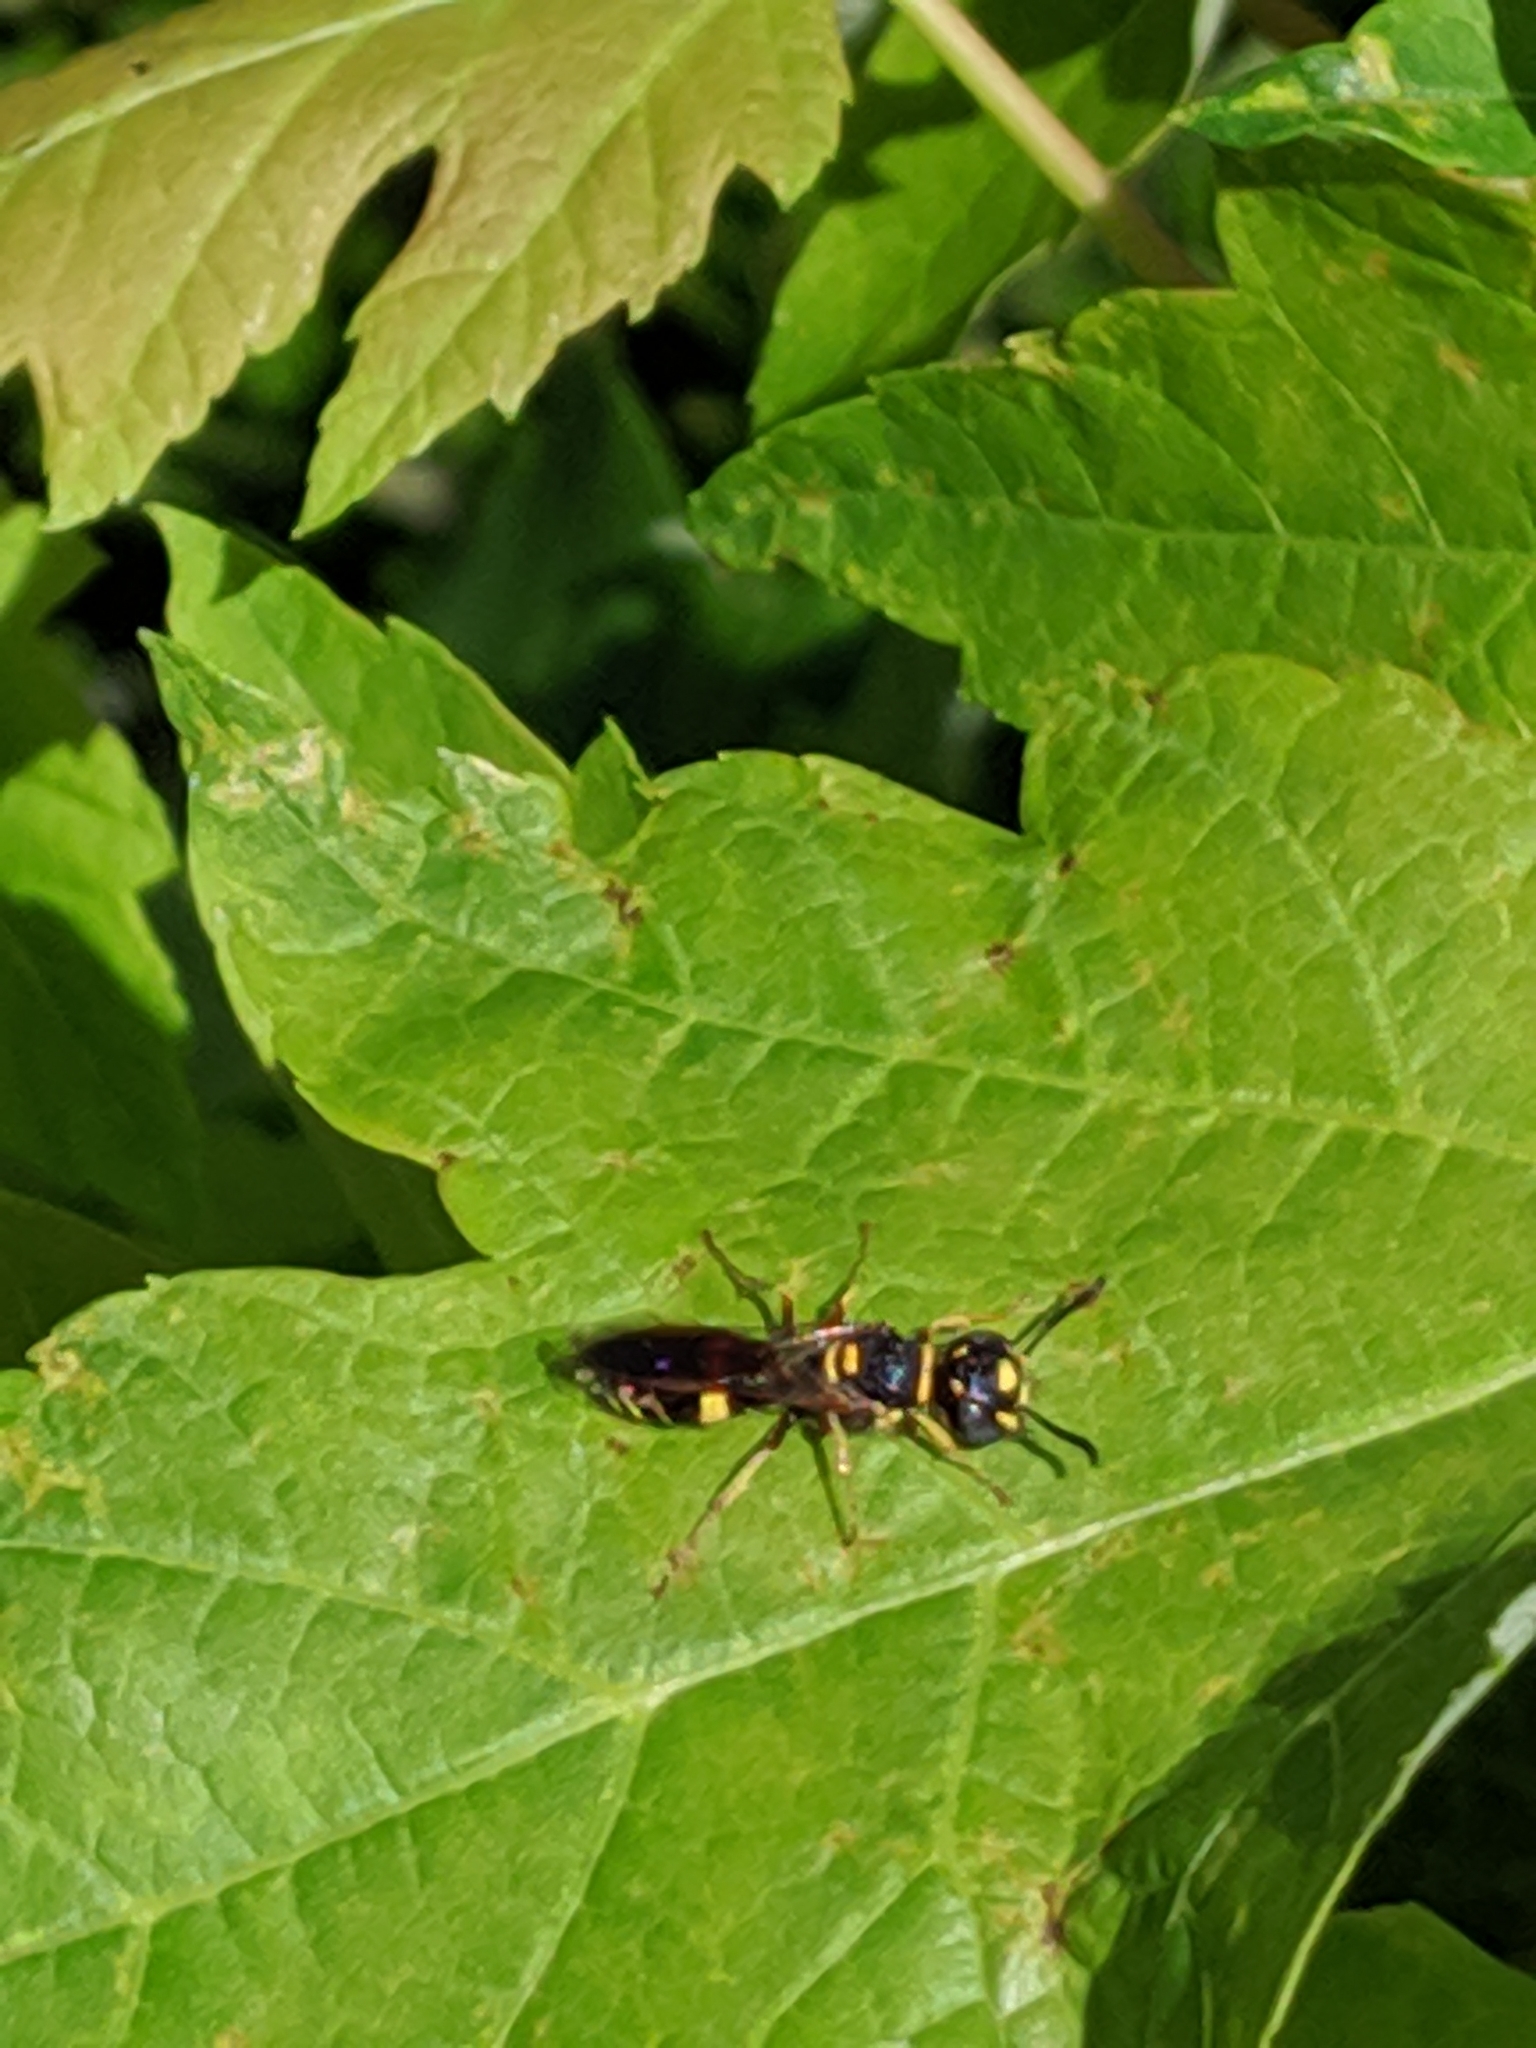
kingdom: Animalia
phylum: Arthropoda
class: Insecta
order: Hymenoptera
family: Crabronidae
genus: Philanthus
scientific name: Philanthus gibbosus
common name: Humped beewolf
